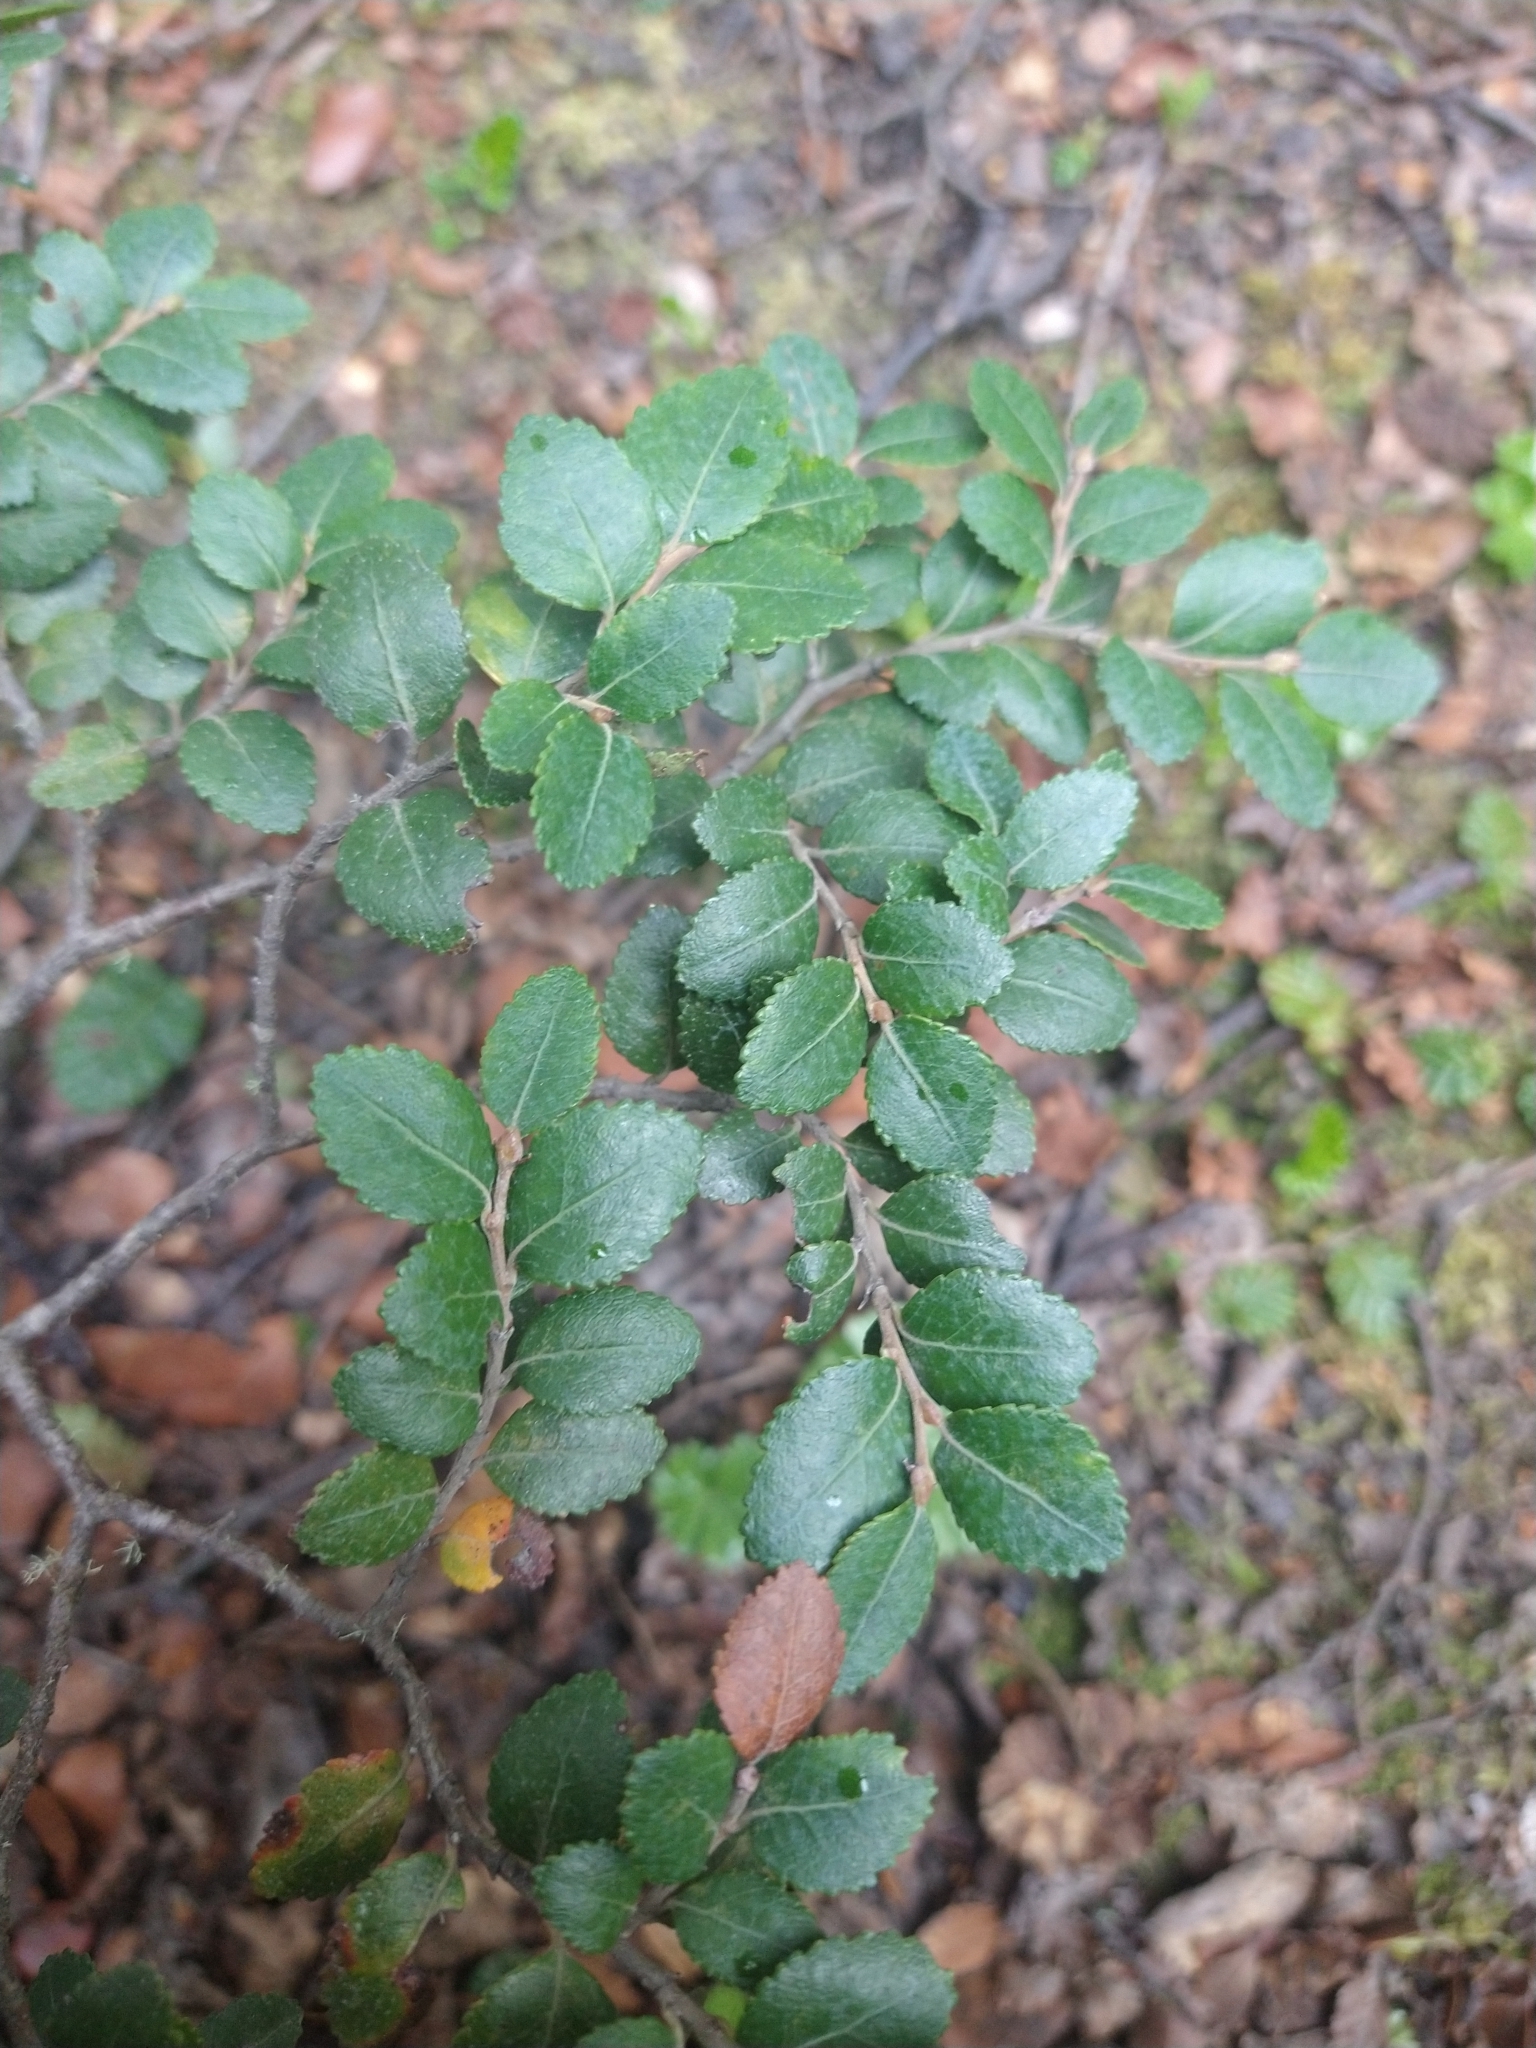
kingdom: Plantae
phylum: Tracheophyta
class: Magnoliopsida
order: Fagales
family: Nothofagaceae
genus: Nothofagus
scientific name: Nothofagus betuloides
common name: Magellan's beech
